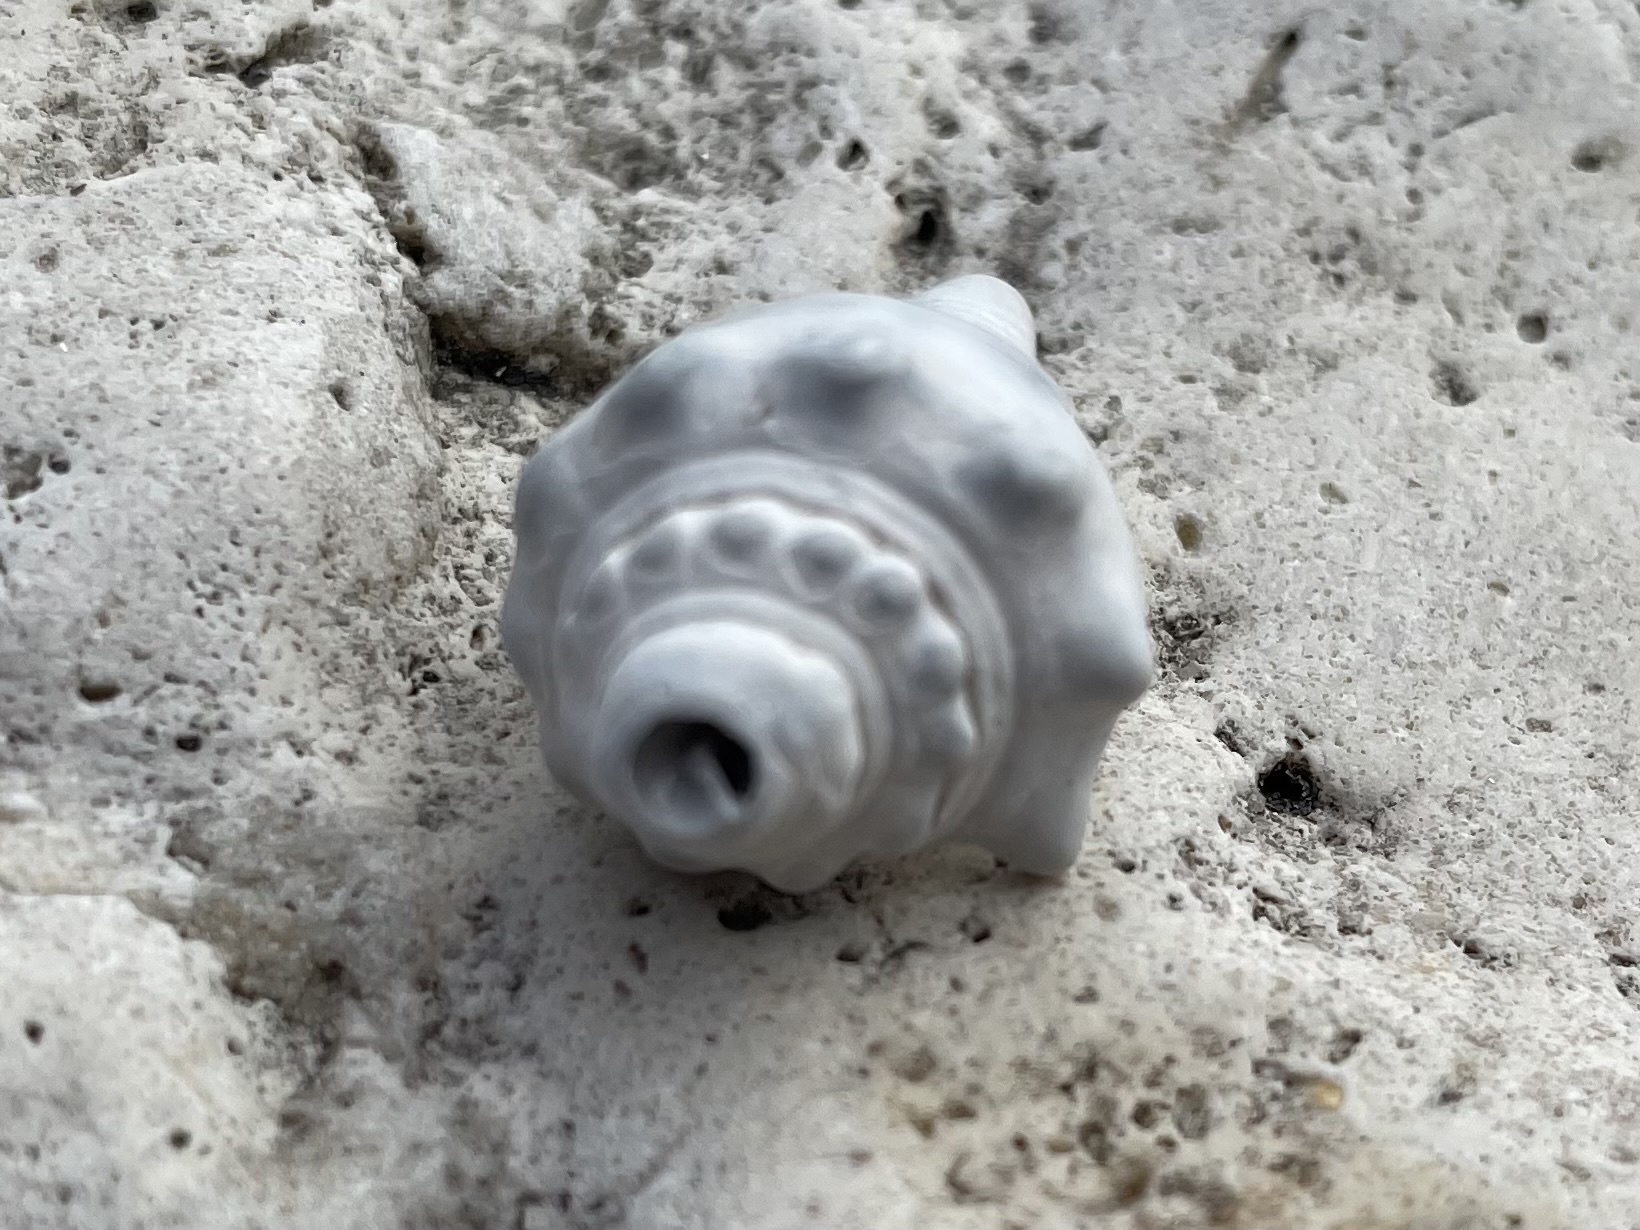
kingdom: Animalia
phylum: Mollusca
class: Gastropoda
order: Littorinimorpha
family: Strombidae
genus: Strombus
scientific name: Strombus alatus
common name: Florida fighting conch
